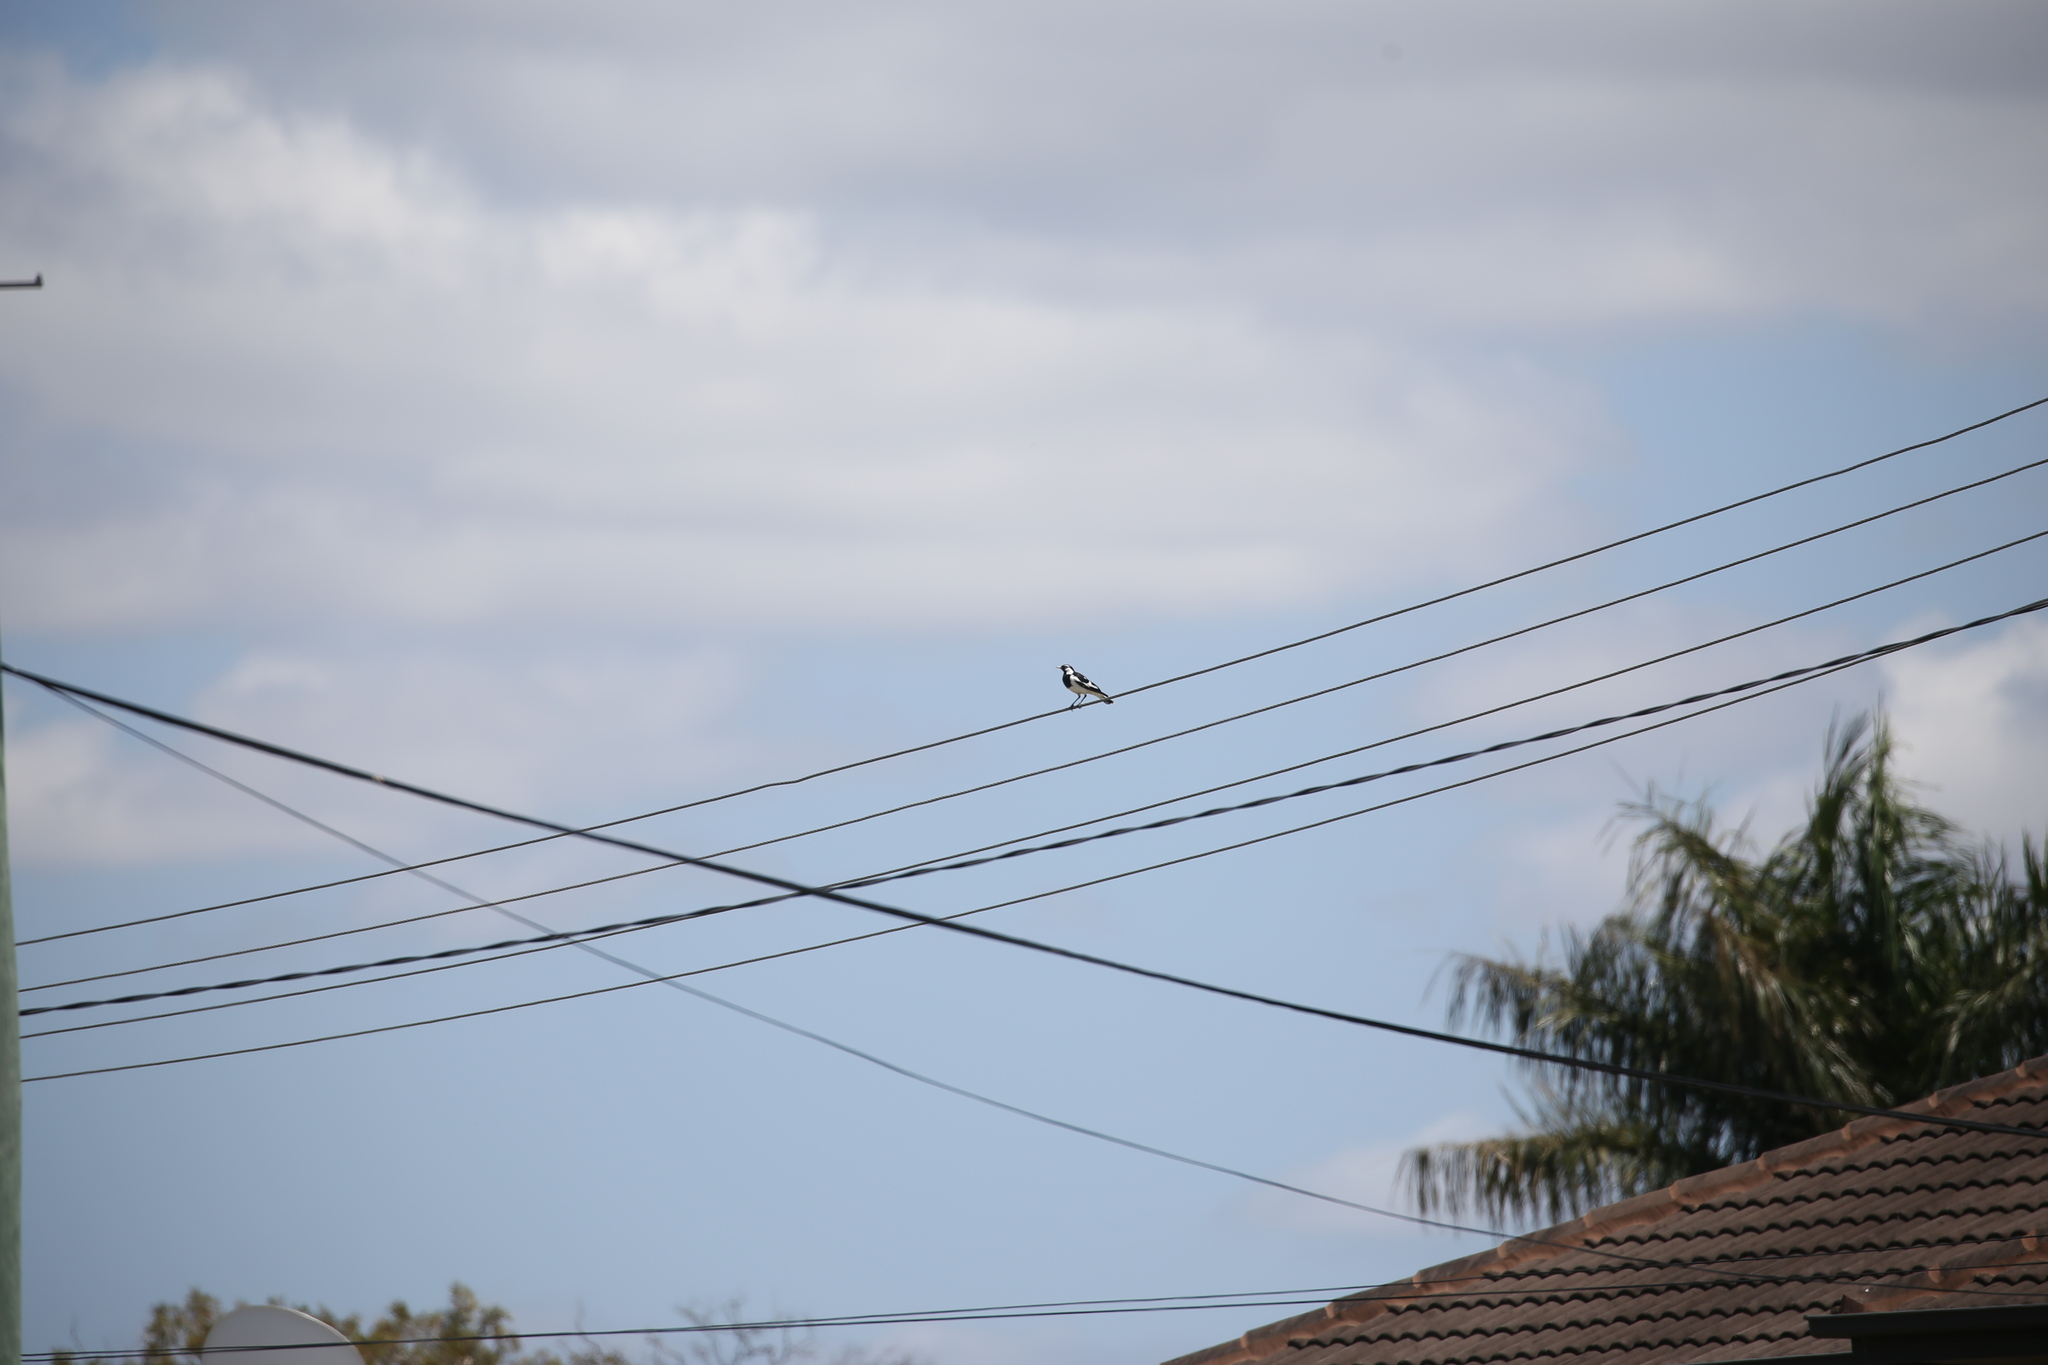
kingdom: Animalia
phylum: Chordata
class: Aves
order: Passeriformes
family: Monarchidae
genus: Grallina
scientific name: Grallina cyanoleuca
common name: Magpie-lark
